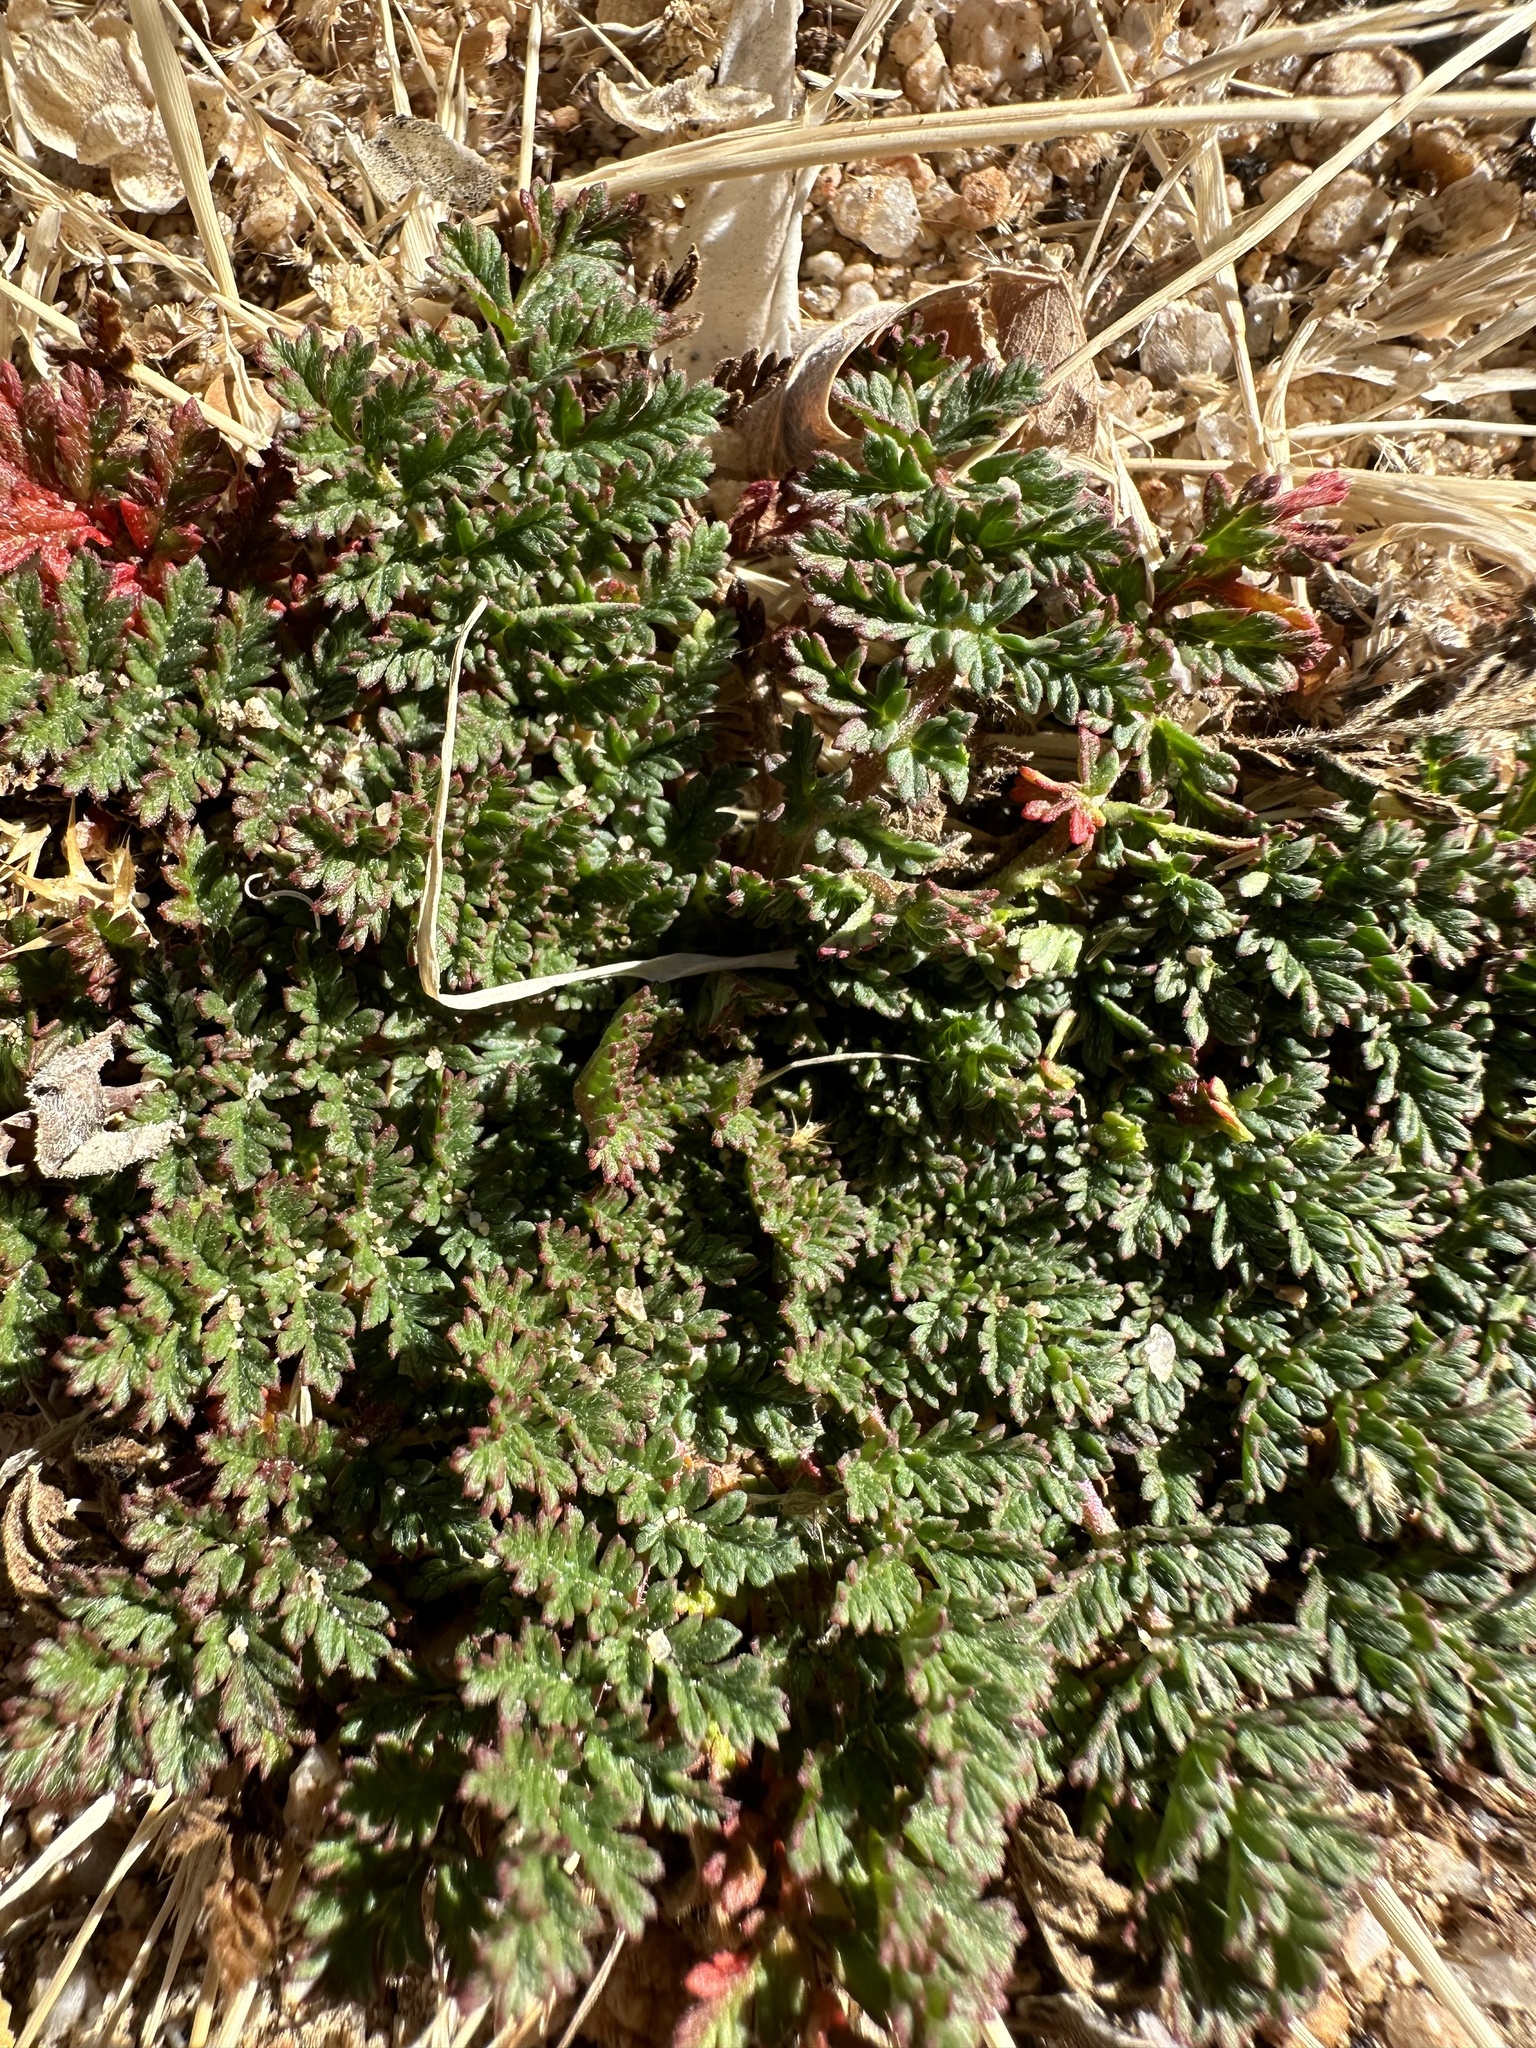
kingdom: Plantae
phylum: Tracheophyta
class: Magnoliopsida
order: Geraniales
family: Geraniaceae
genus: Erodium
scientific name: Erodium cicutarium
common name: Common stork's-bill
